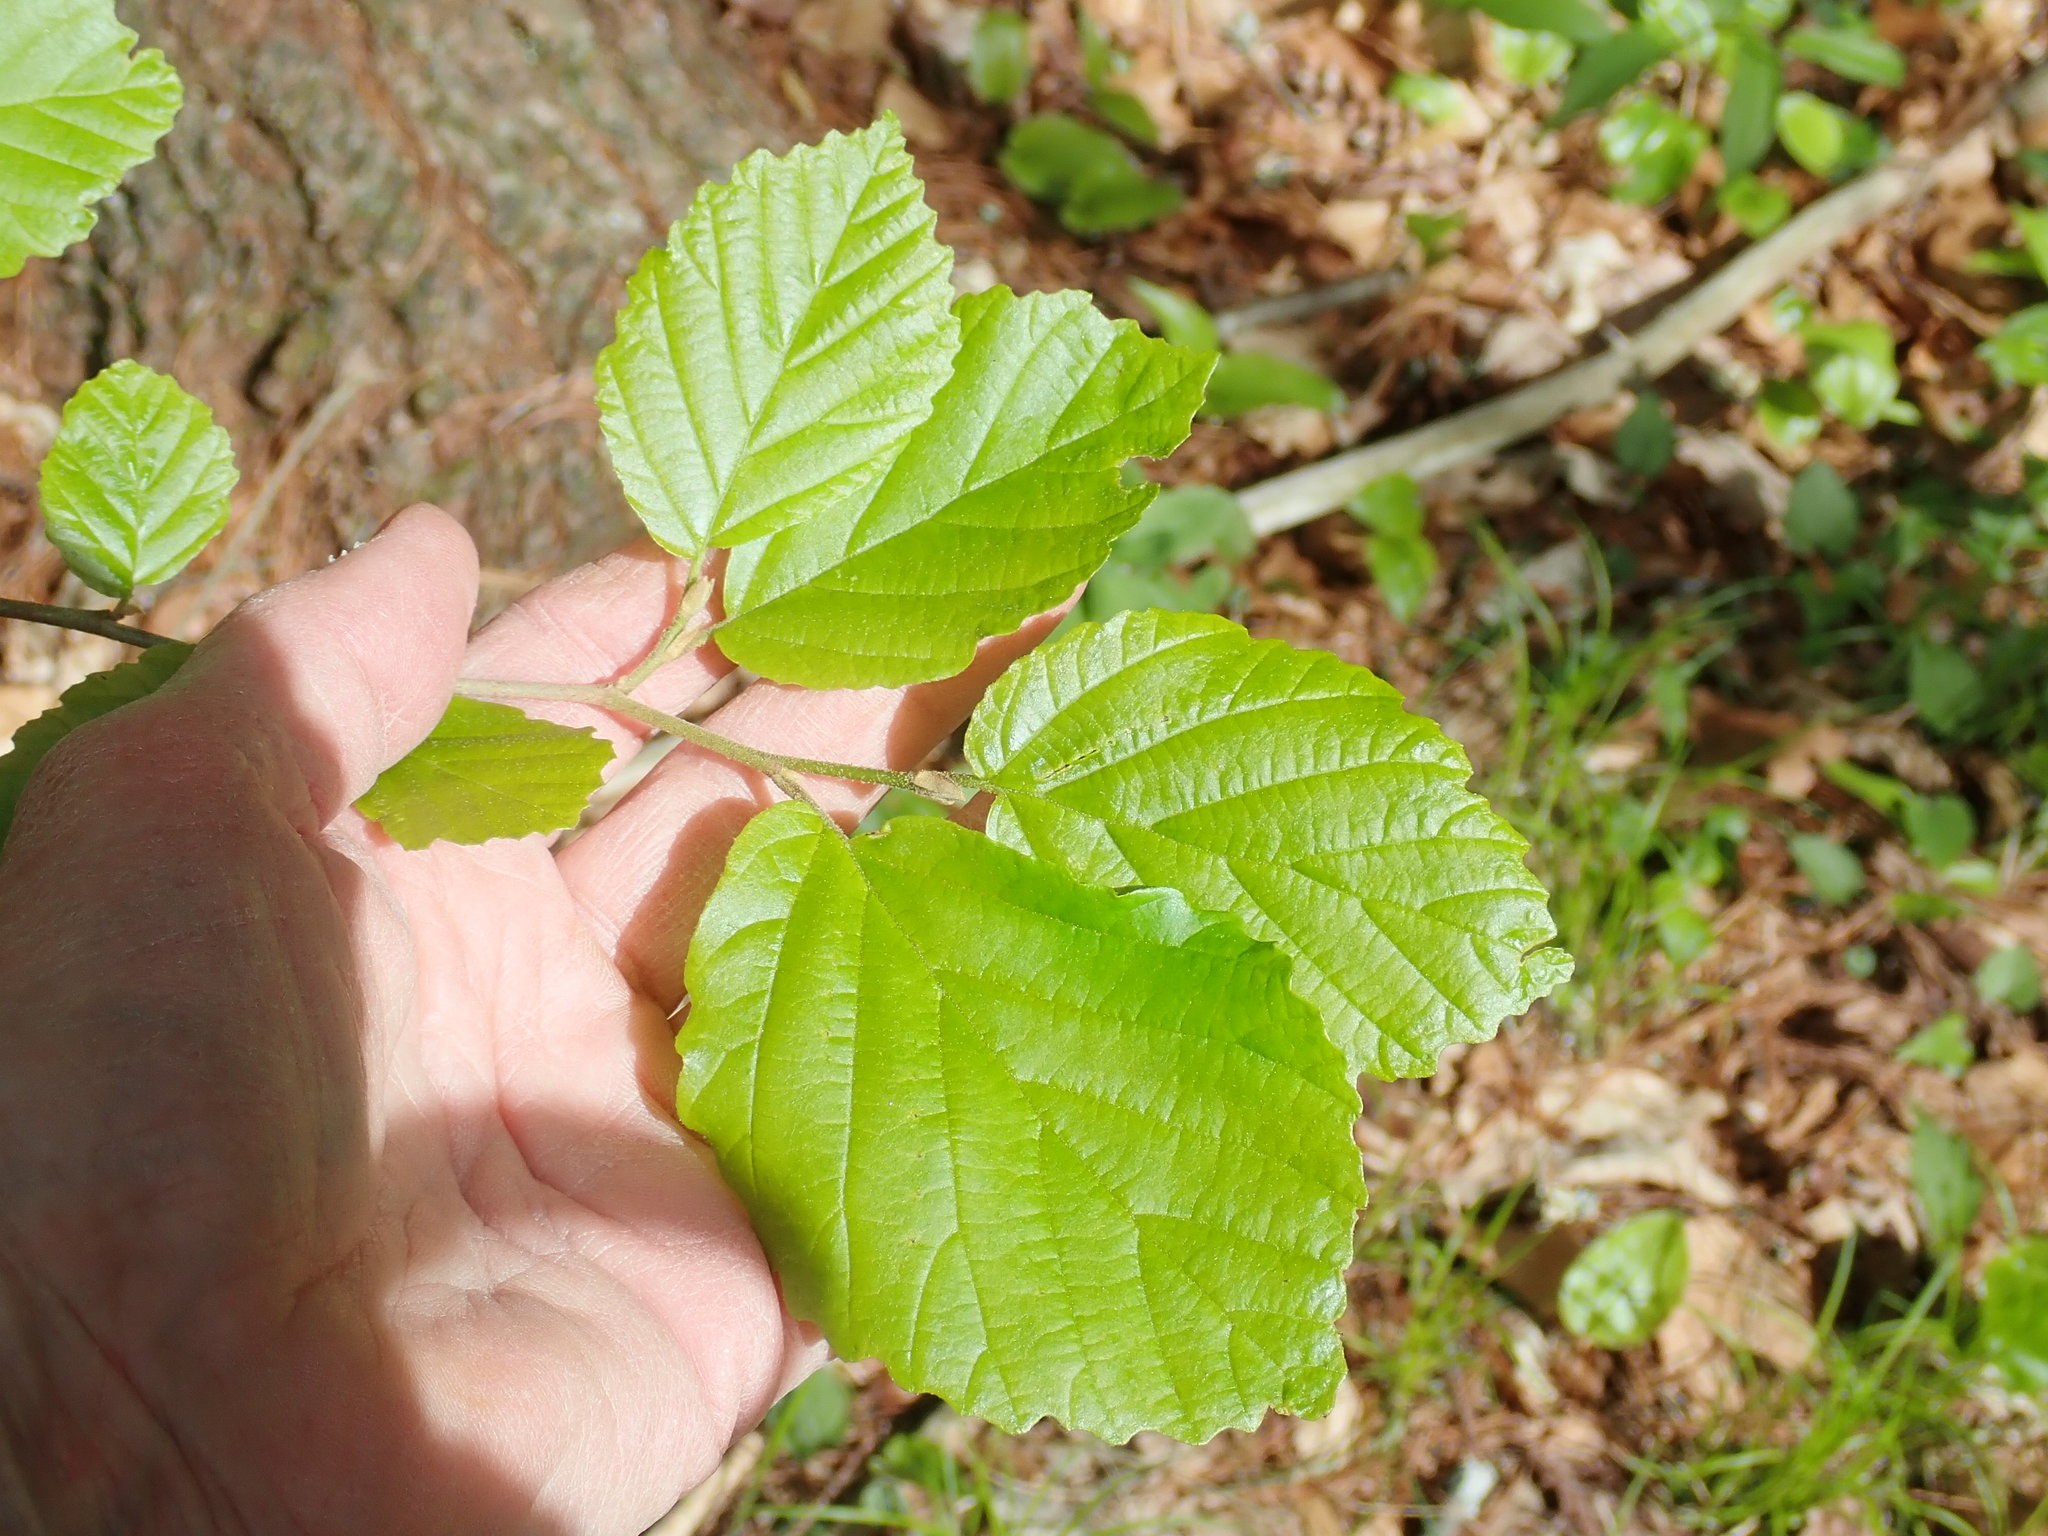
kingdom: Plantae
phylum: Tracheophyta
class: Magnoliopsida
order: Saxifragales
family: Hamamelidaceae
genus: Hamamelis
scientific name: Hamamelis virginiana
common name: Witch-hazel
